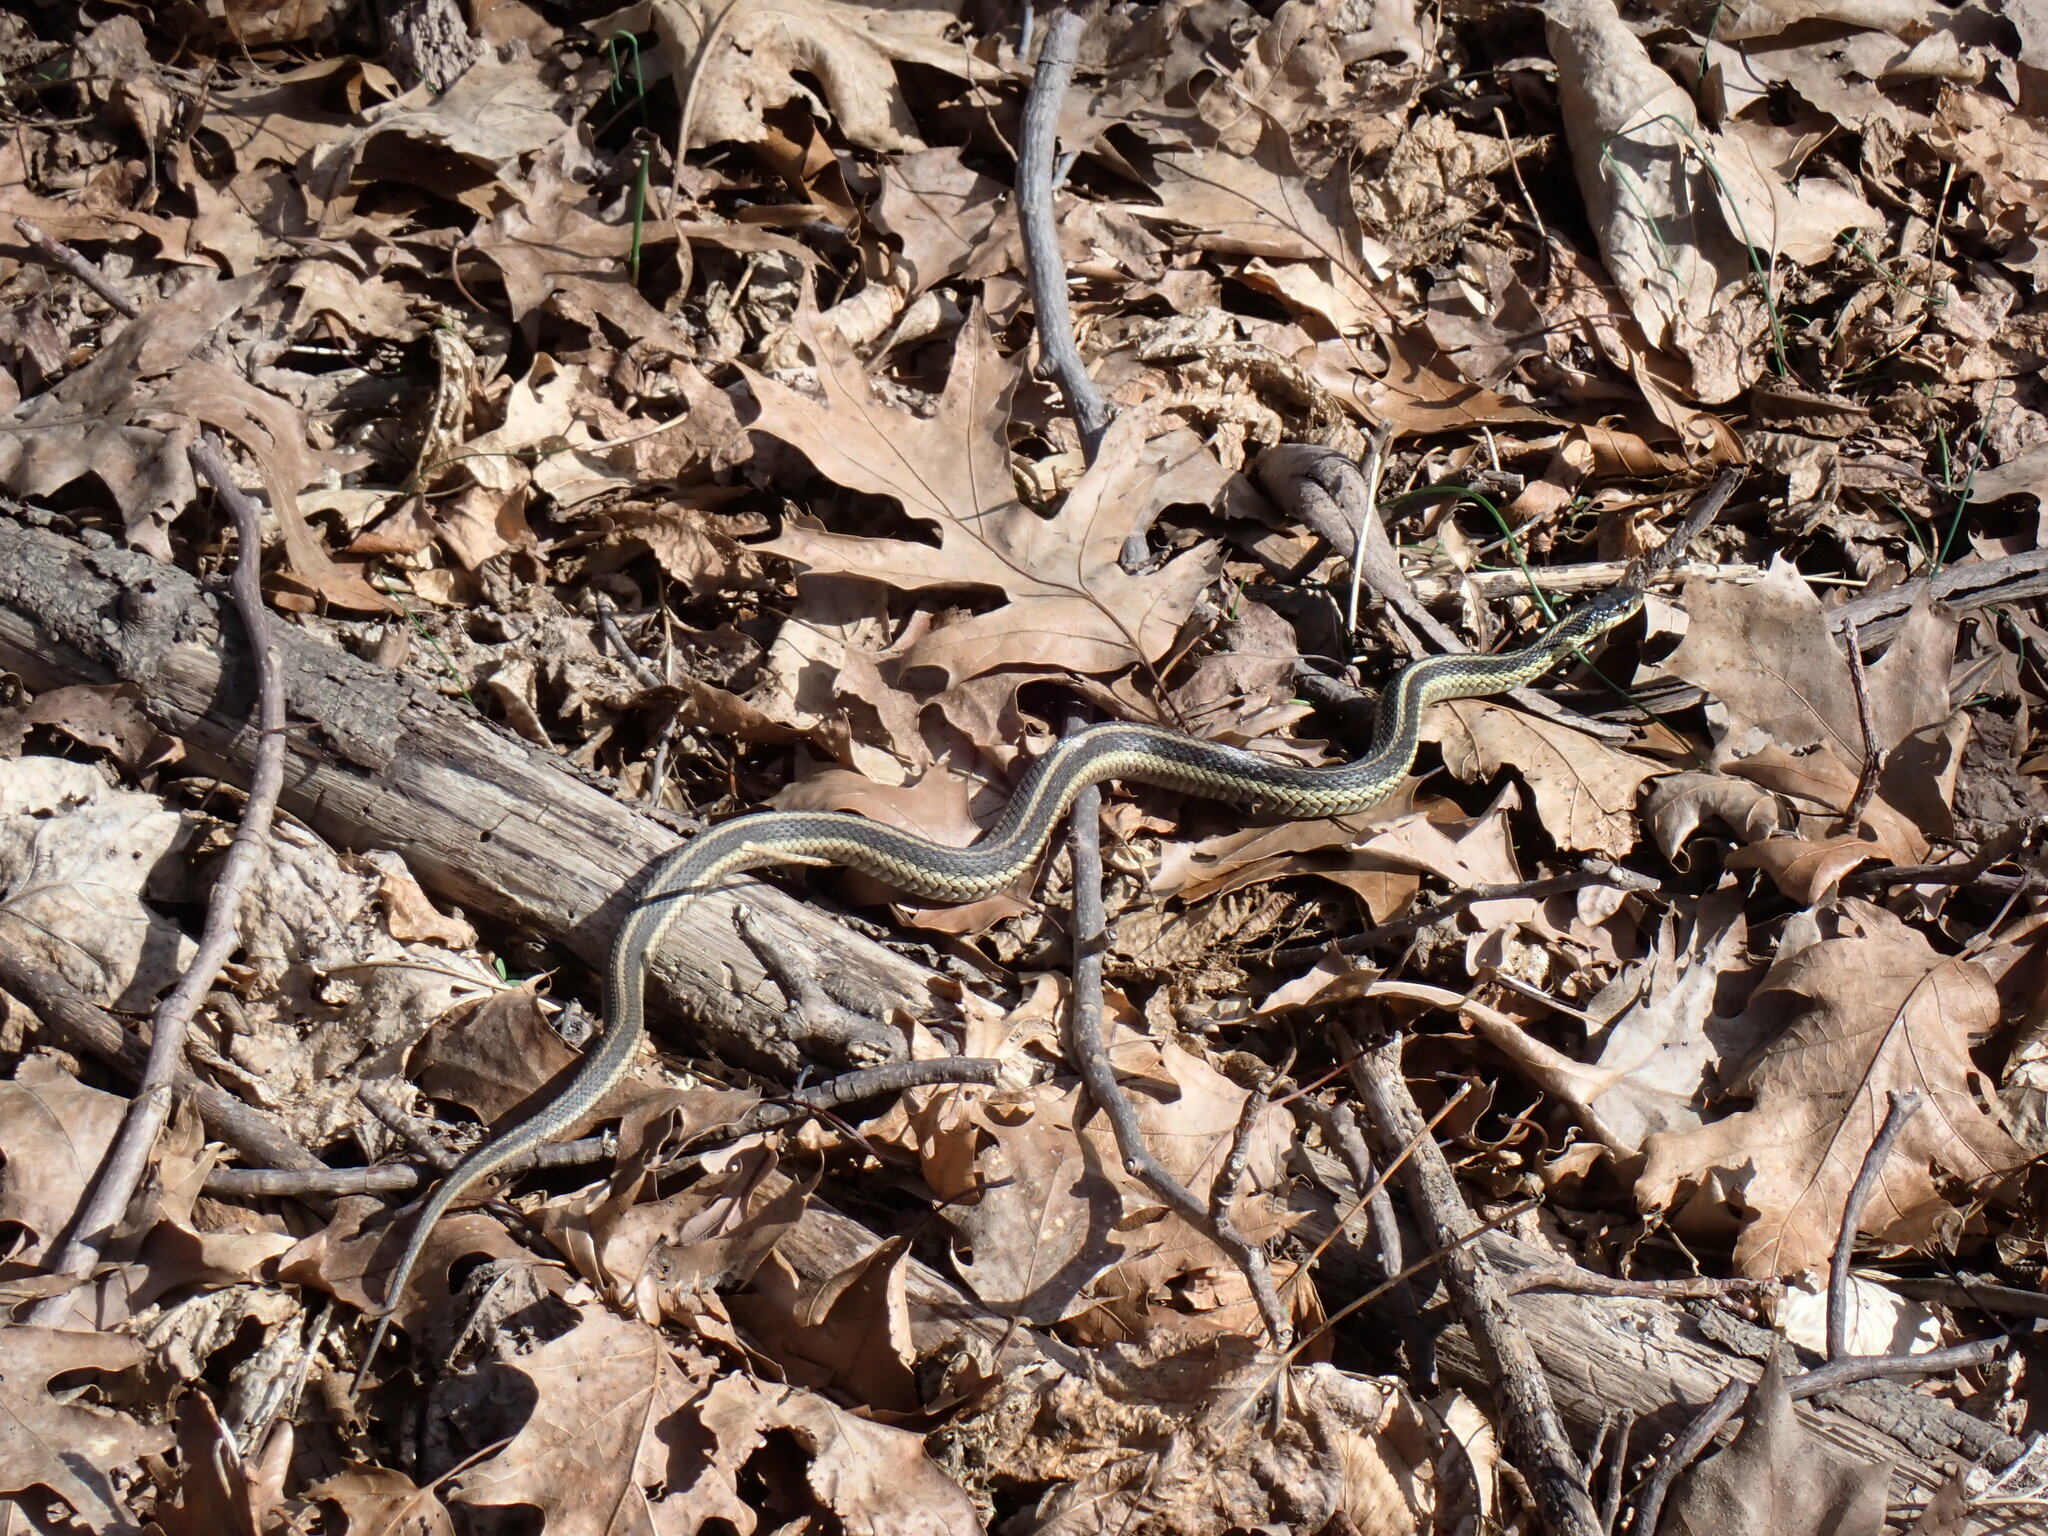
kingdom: Animalia
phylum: Chordata
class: Squamata
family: Colubridae
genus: Thamnophis
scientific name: Thamnophis sirtalis
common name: Common garter snake
